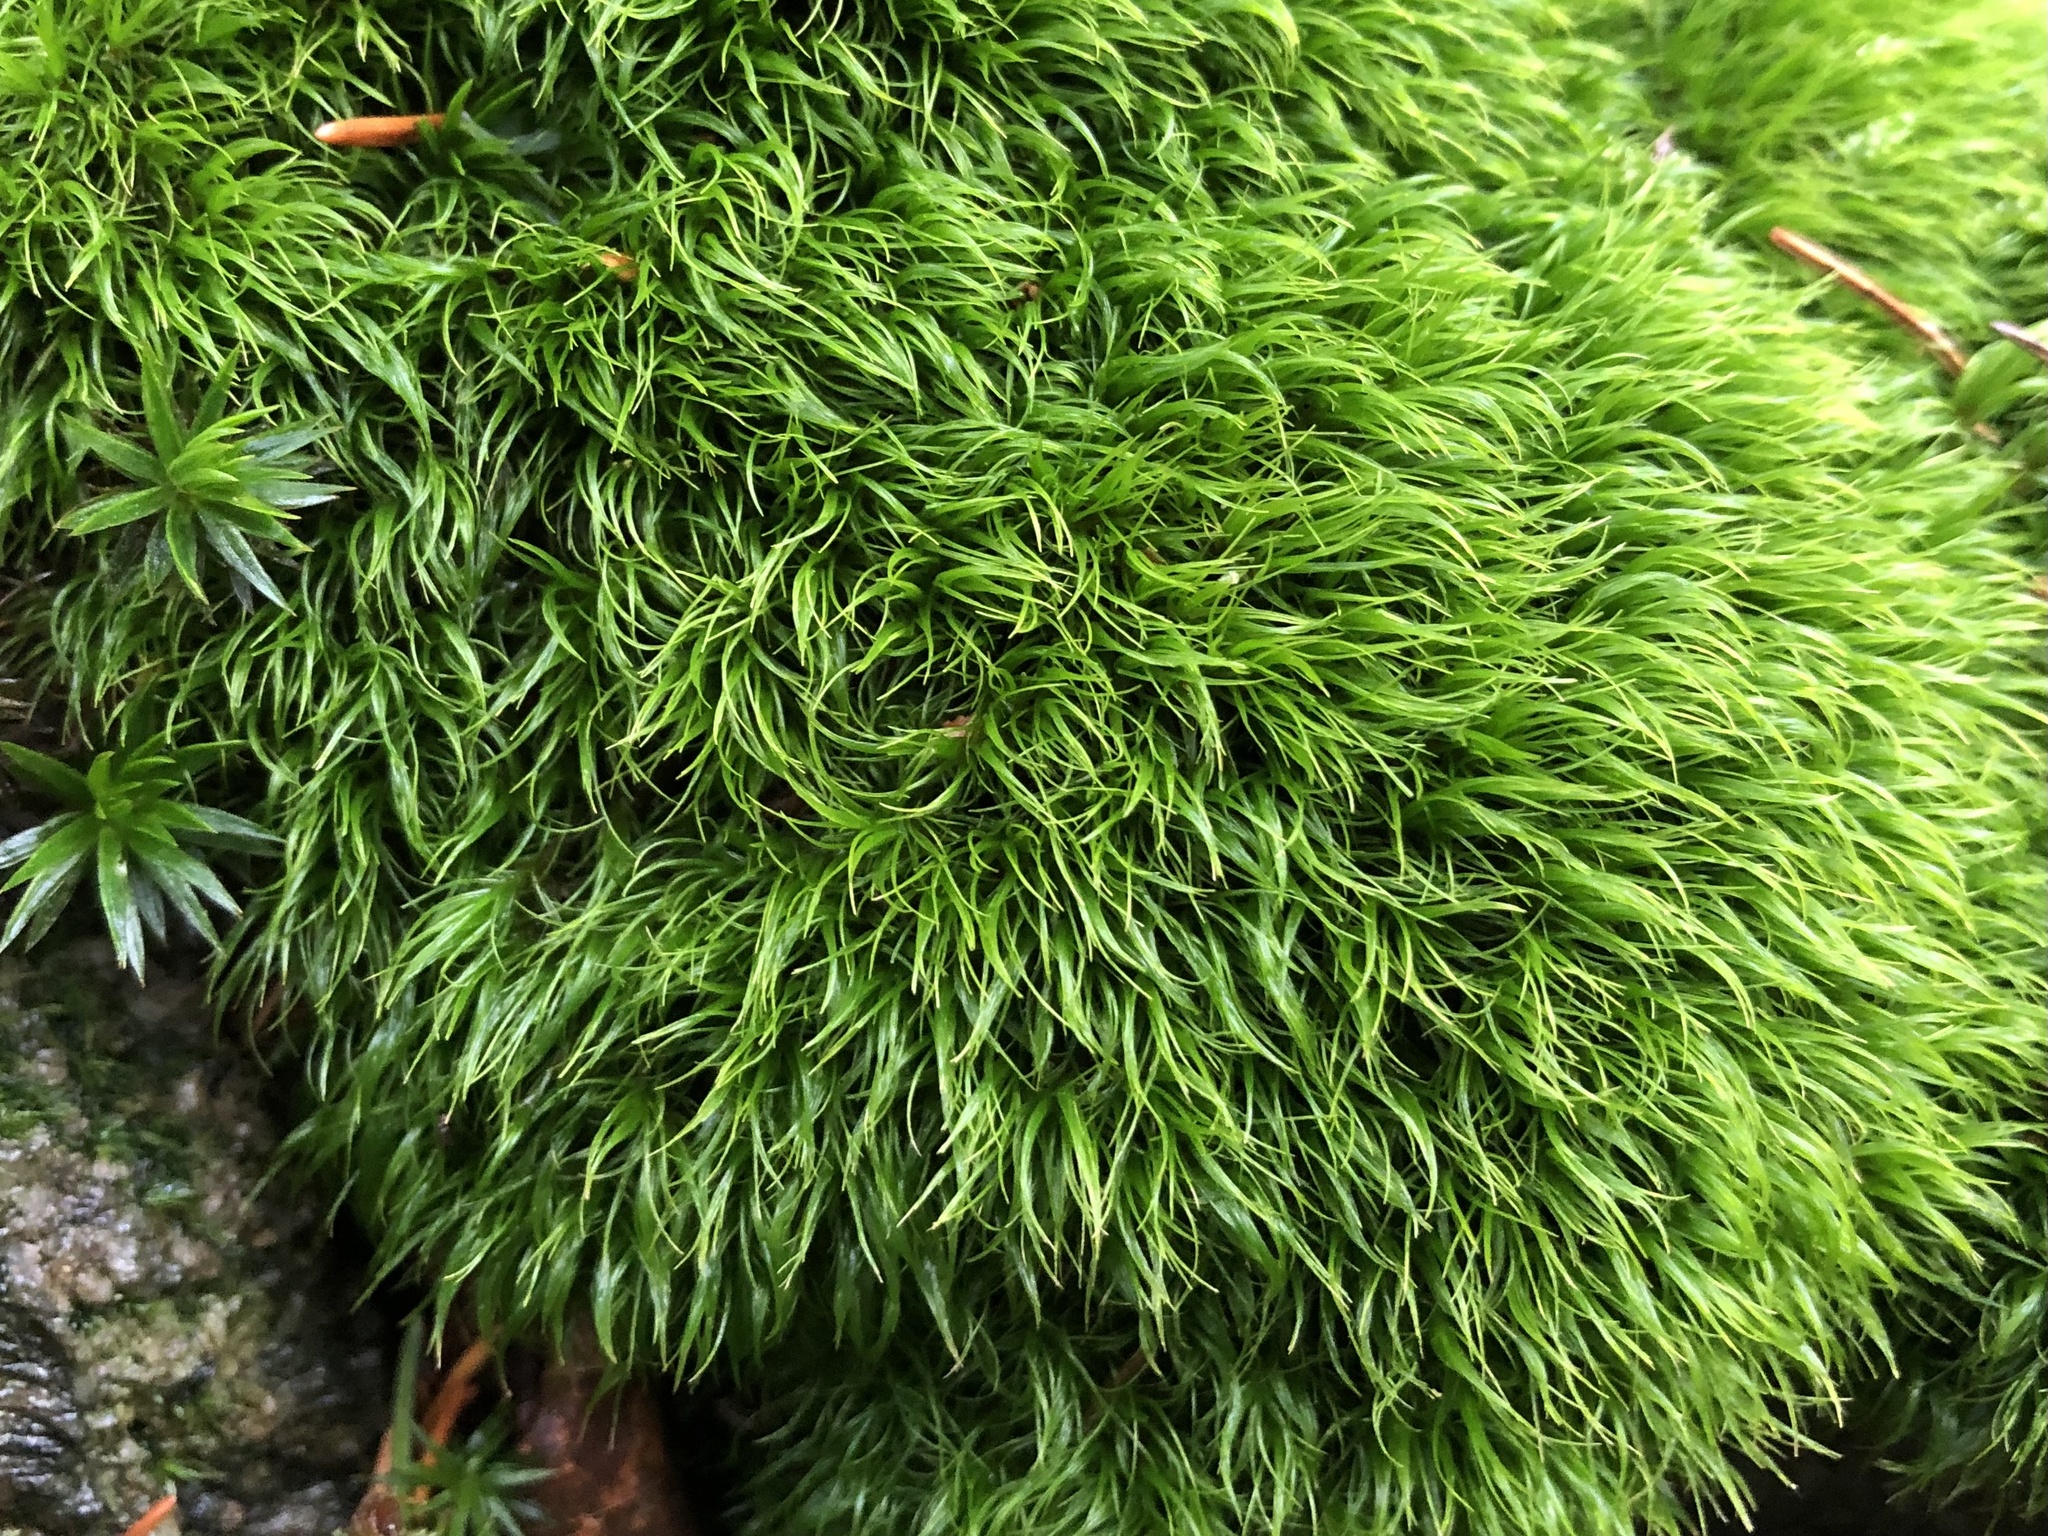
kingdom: Plantae
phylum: Bryophyta
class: Bryopsida
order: Dicranales
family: Dicranaceae
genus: Dicranum
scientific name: Dicranum scoparium
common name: Broom fork-moss
